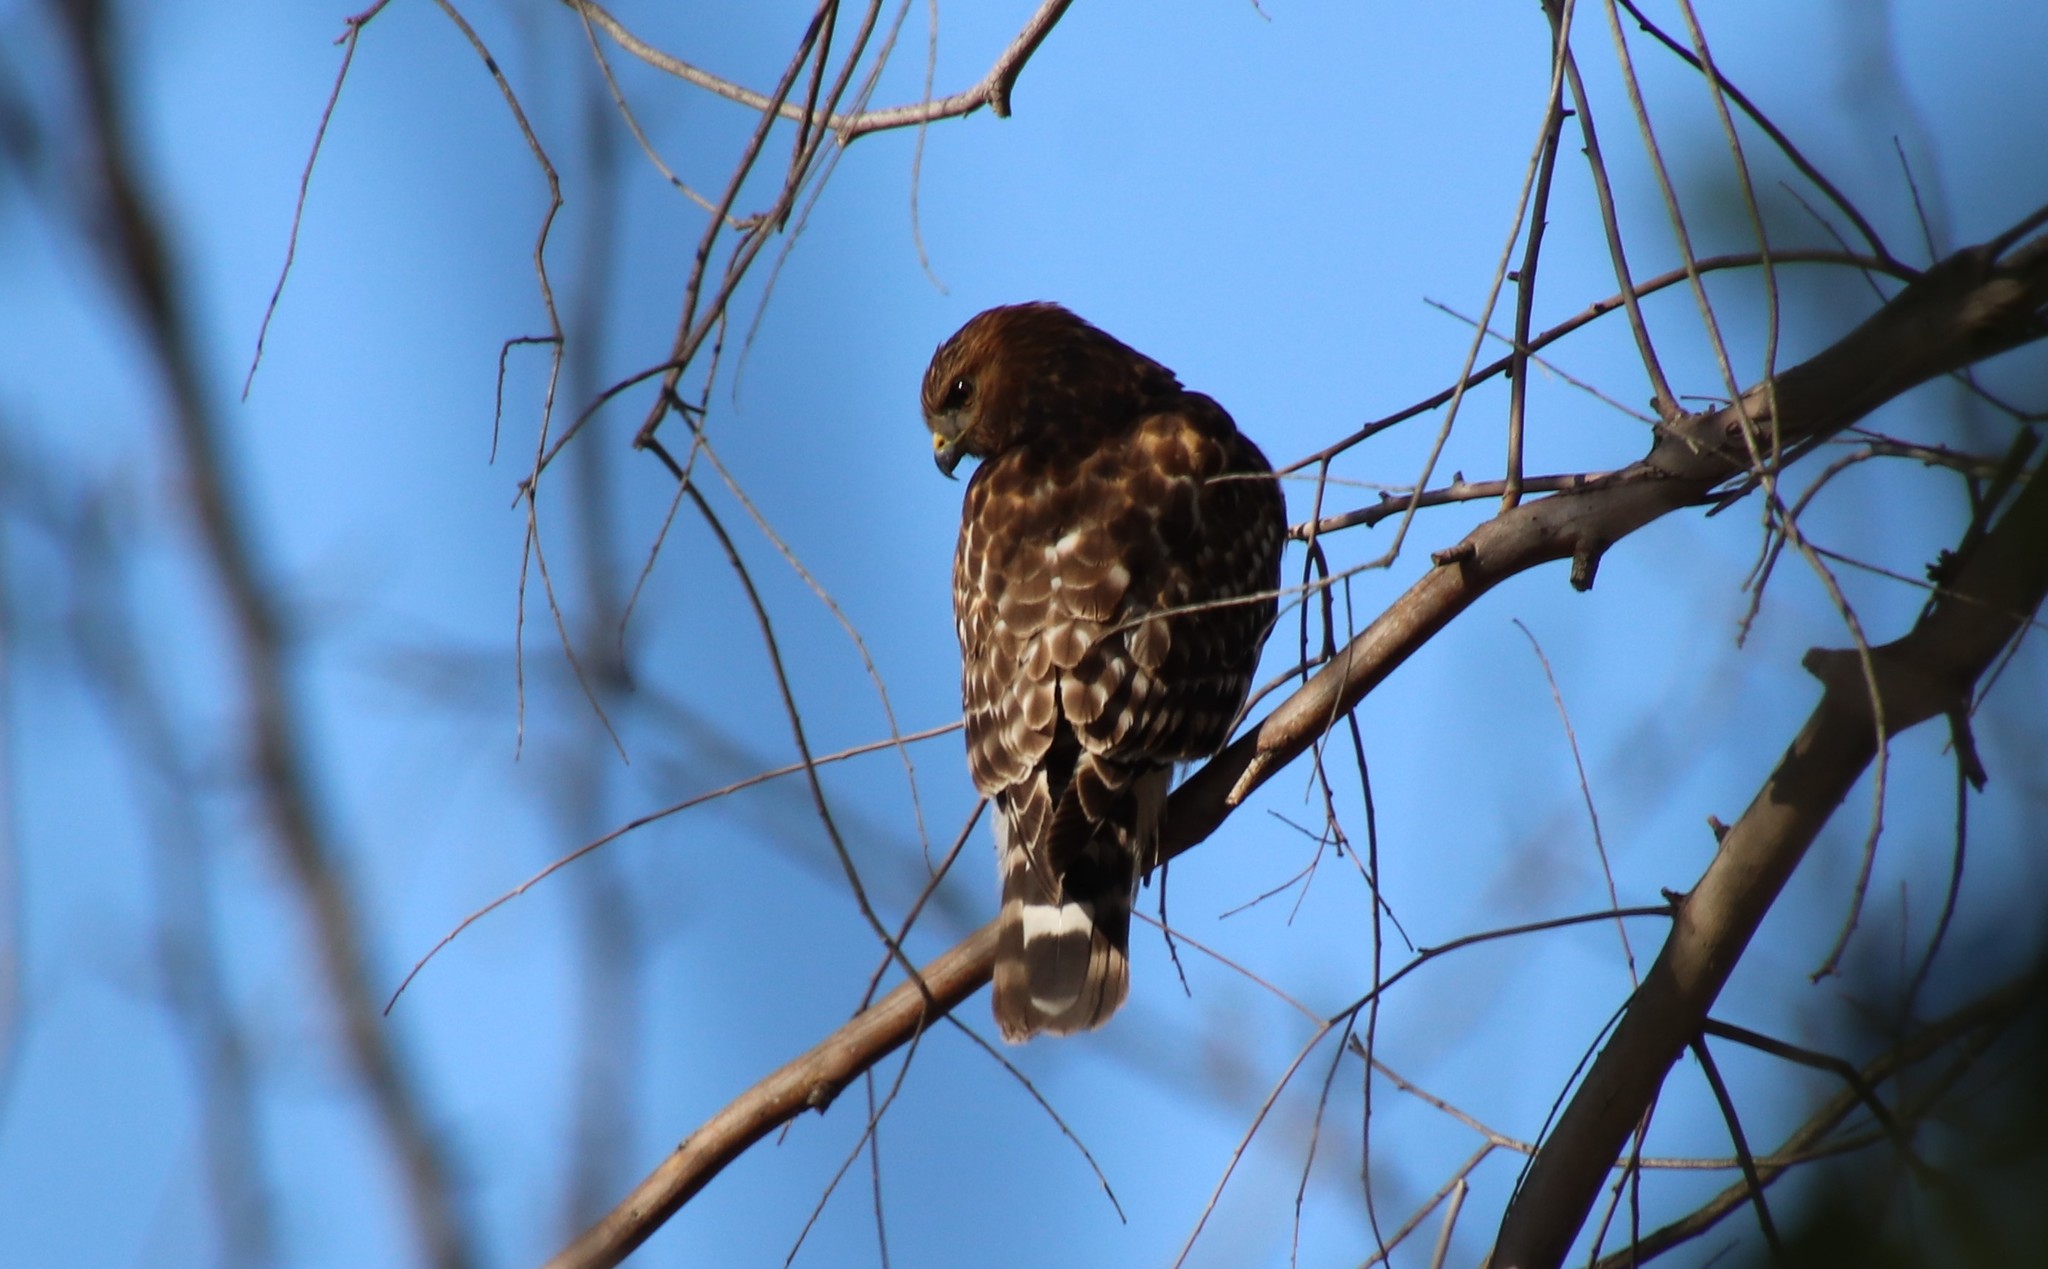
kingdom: Animalia
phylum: Chordata
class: Aves
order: Accipitriformes
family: Accipitridae
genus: Buteo
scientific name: Buteo lineatus
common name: Red-shouldered hawk
